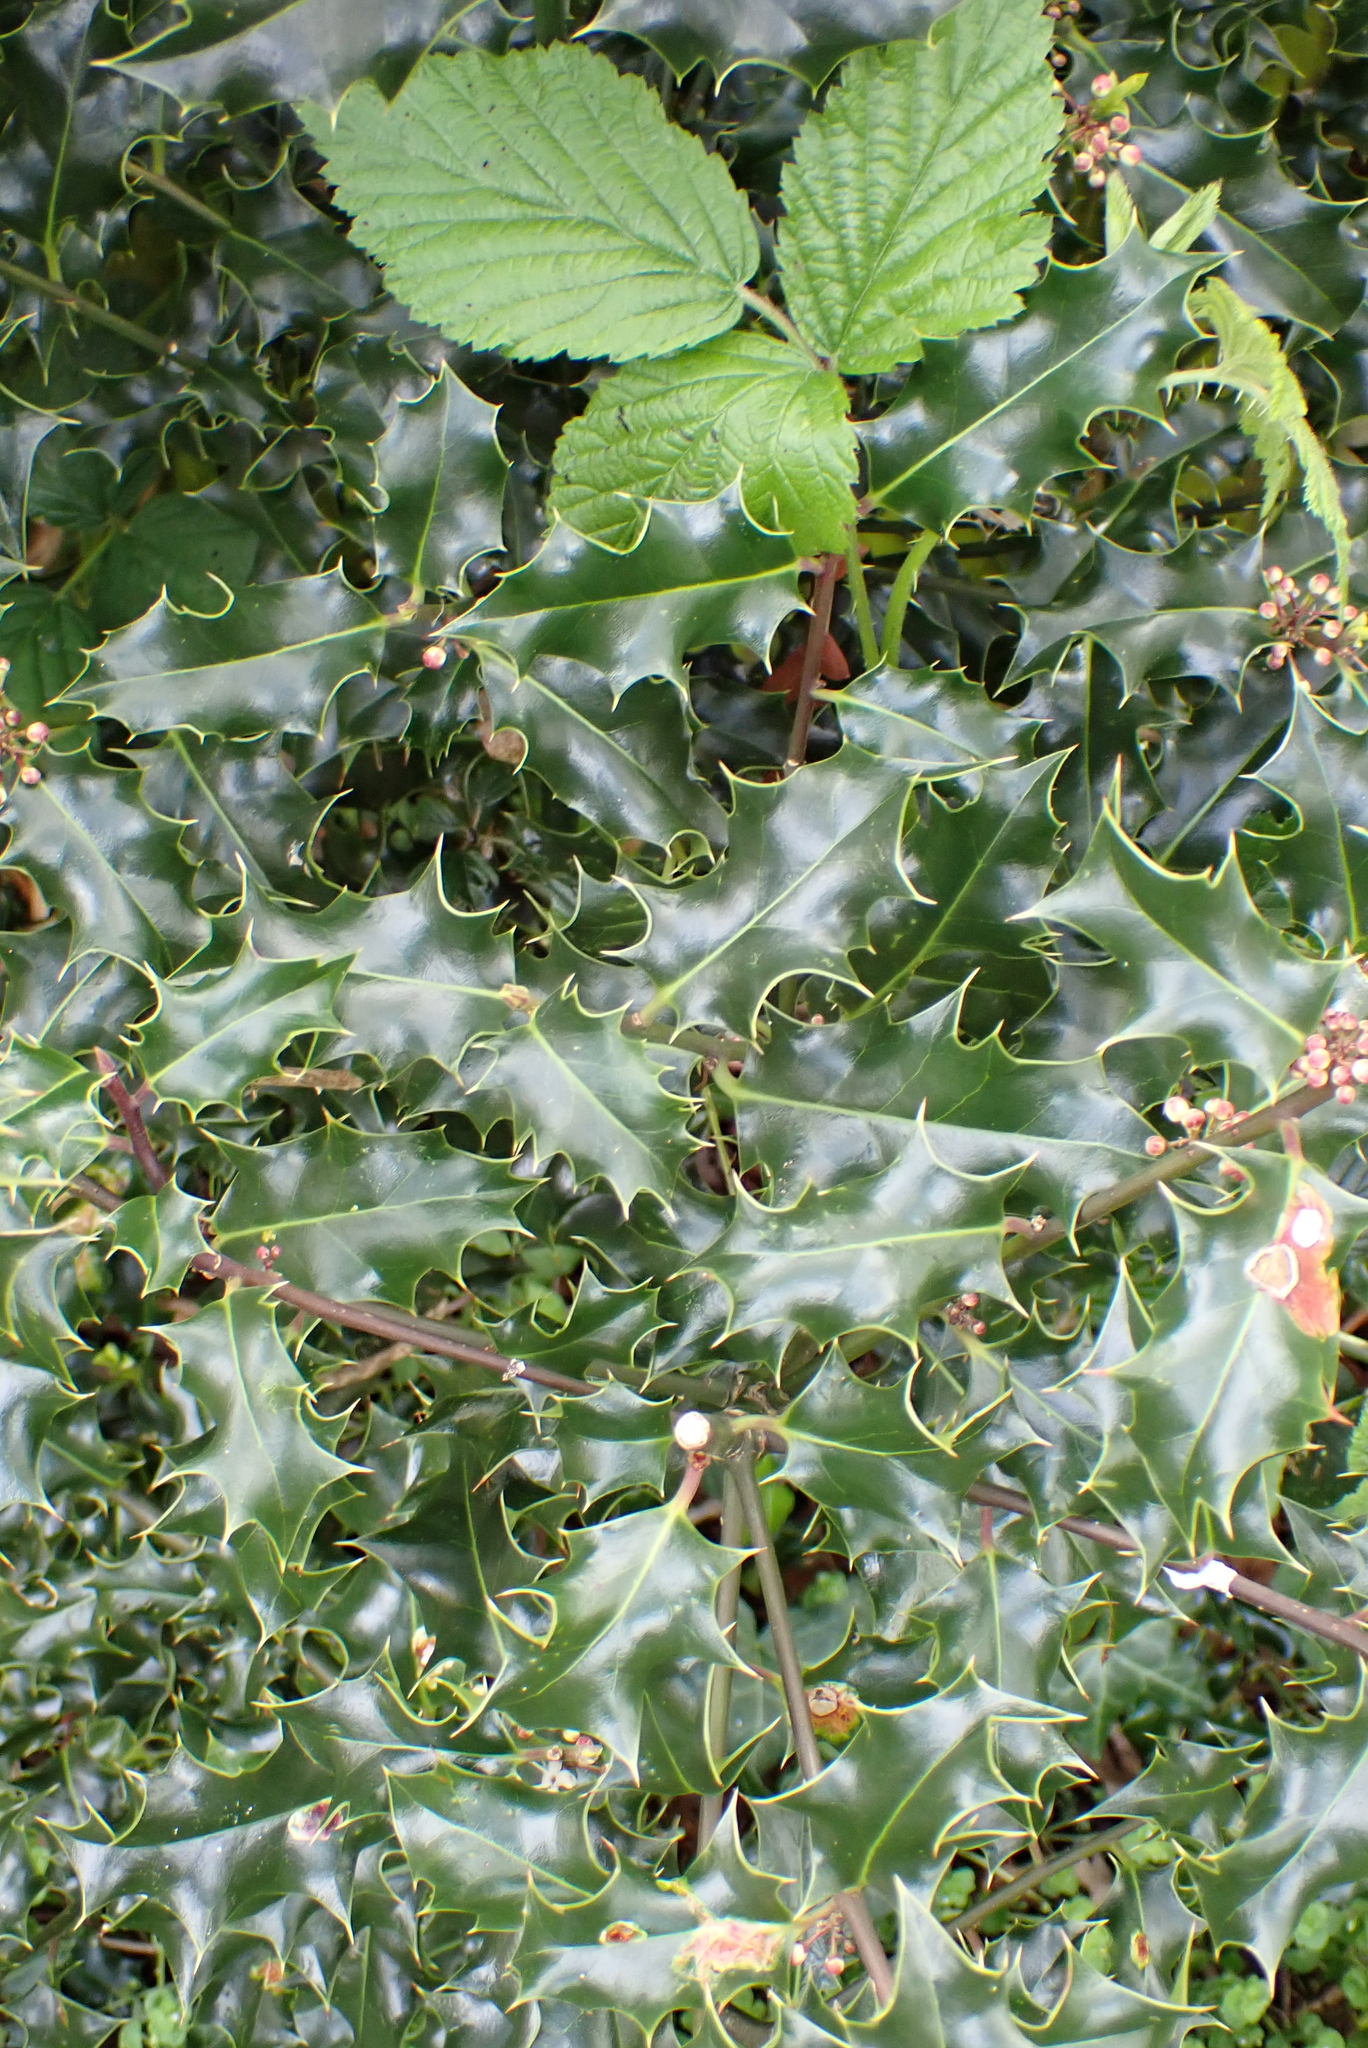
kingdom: Plantae
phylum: Tracheophyta
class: Magnoliopsida
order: Aquifoliales
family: Aquifoliaceae
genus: Ilex
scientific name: Ilex aquifolium
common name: English holly
